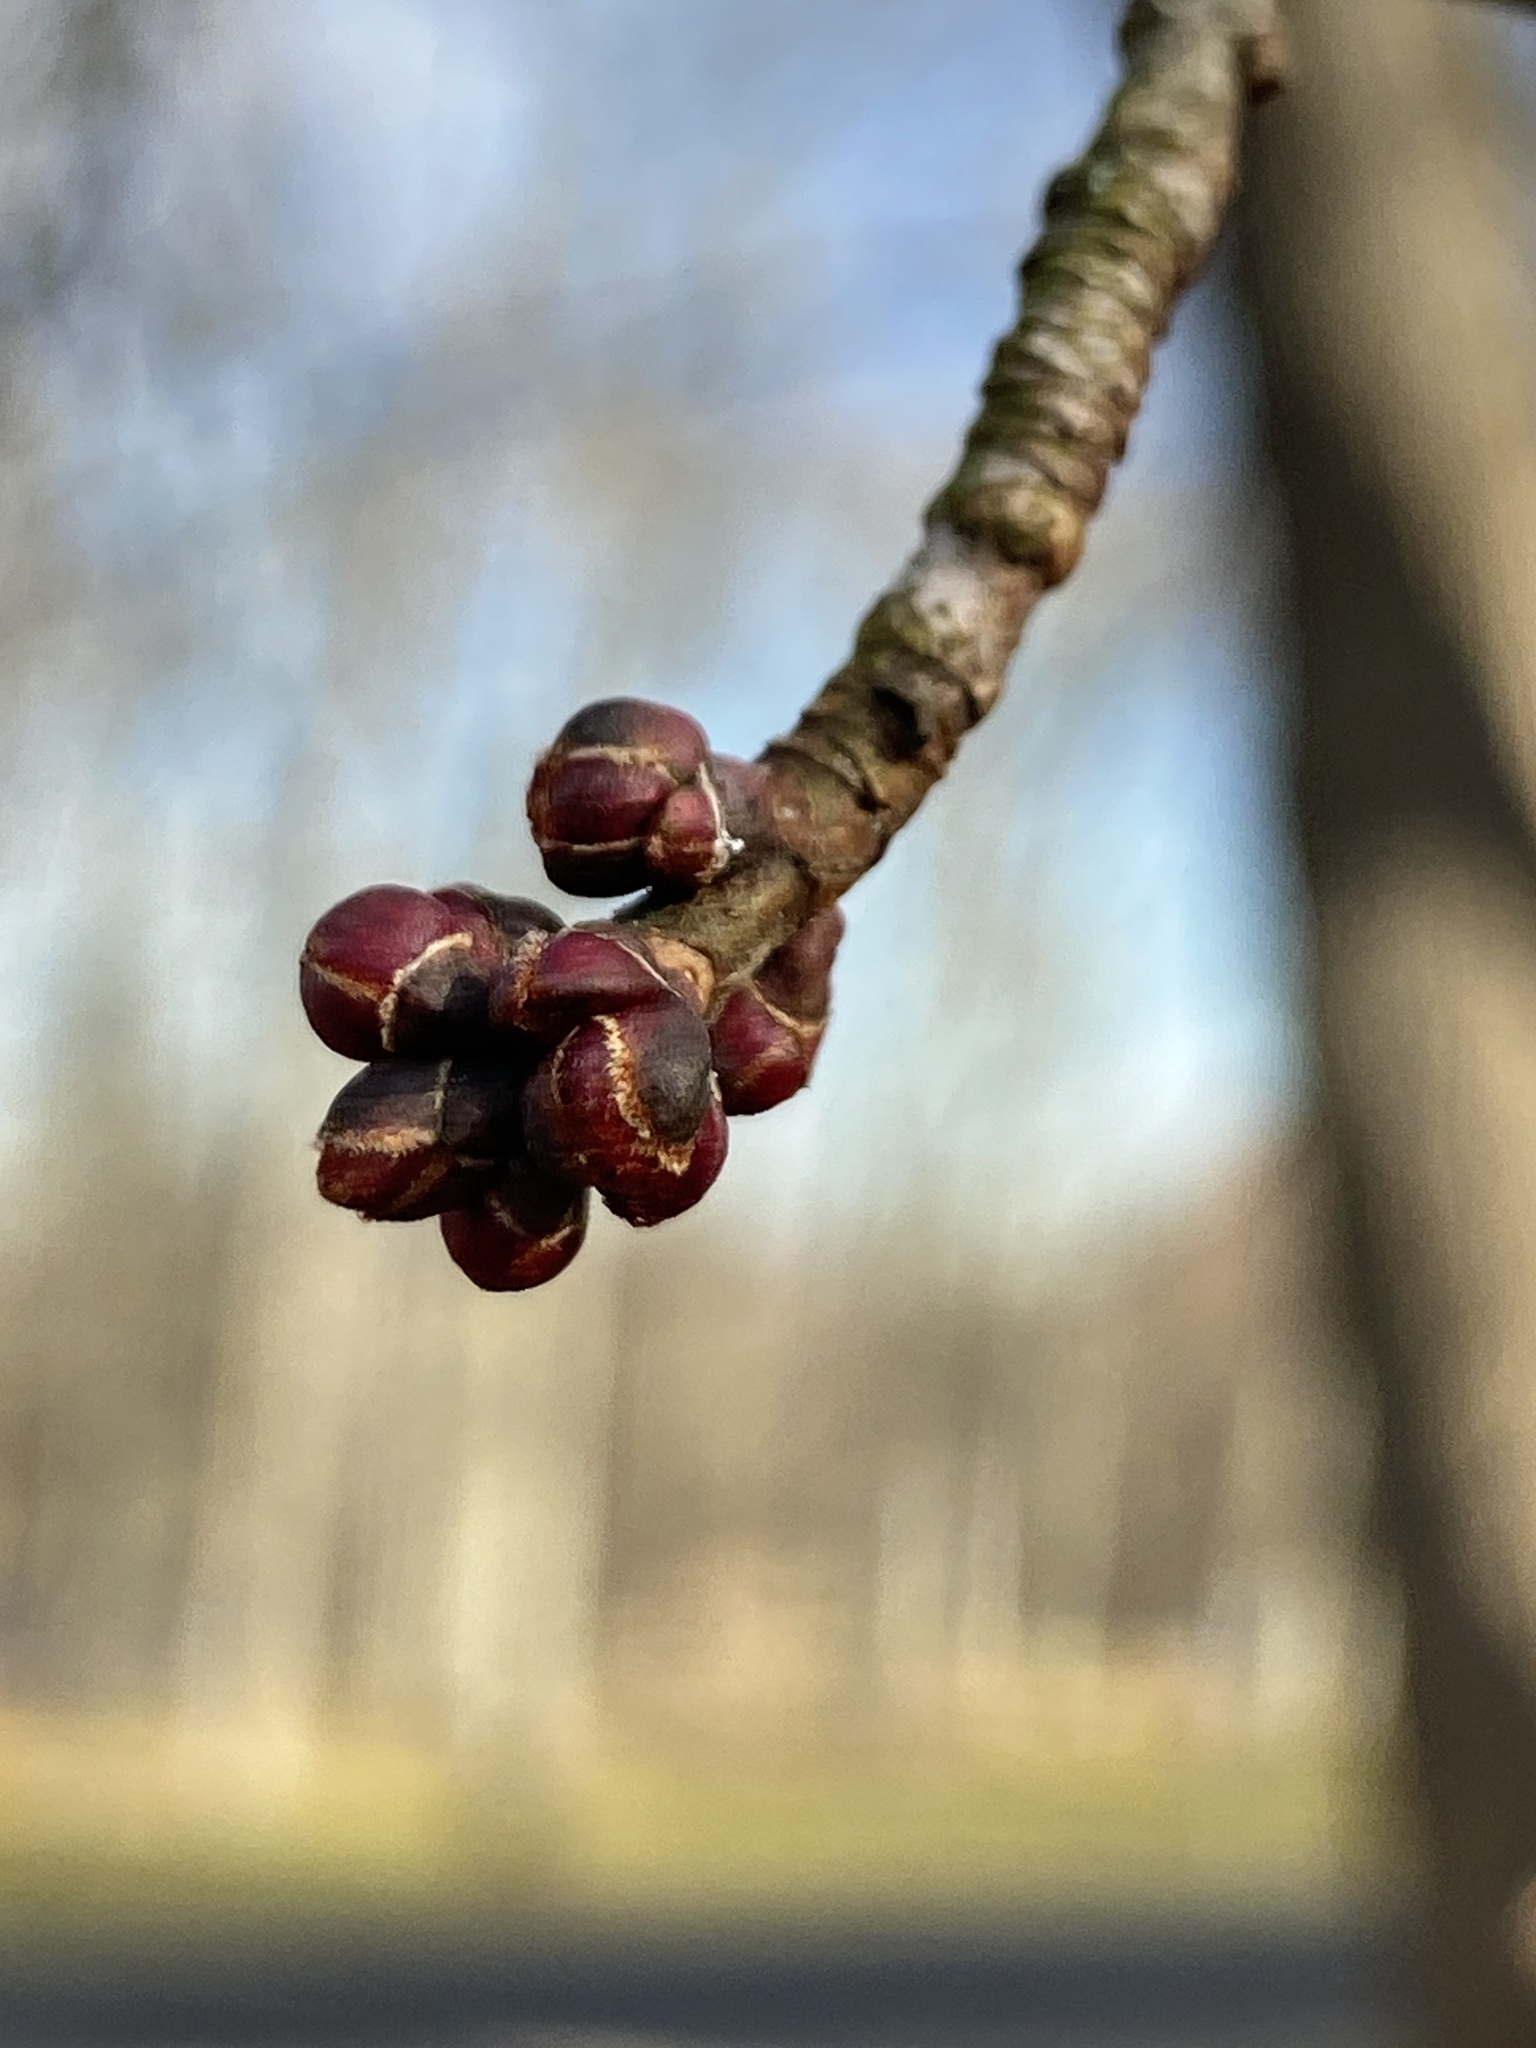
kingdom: Plantae
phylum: Tracheophyta
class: Magnoliopsida
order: Sapindales
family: Sapindaceae
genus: Acer
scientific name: Acer rubrum
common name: Red maple
